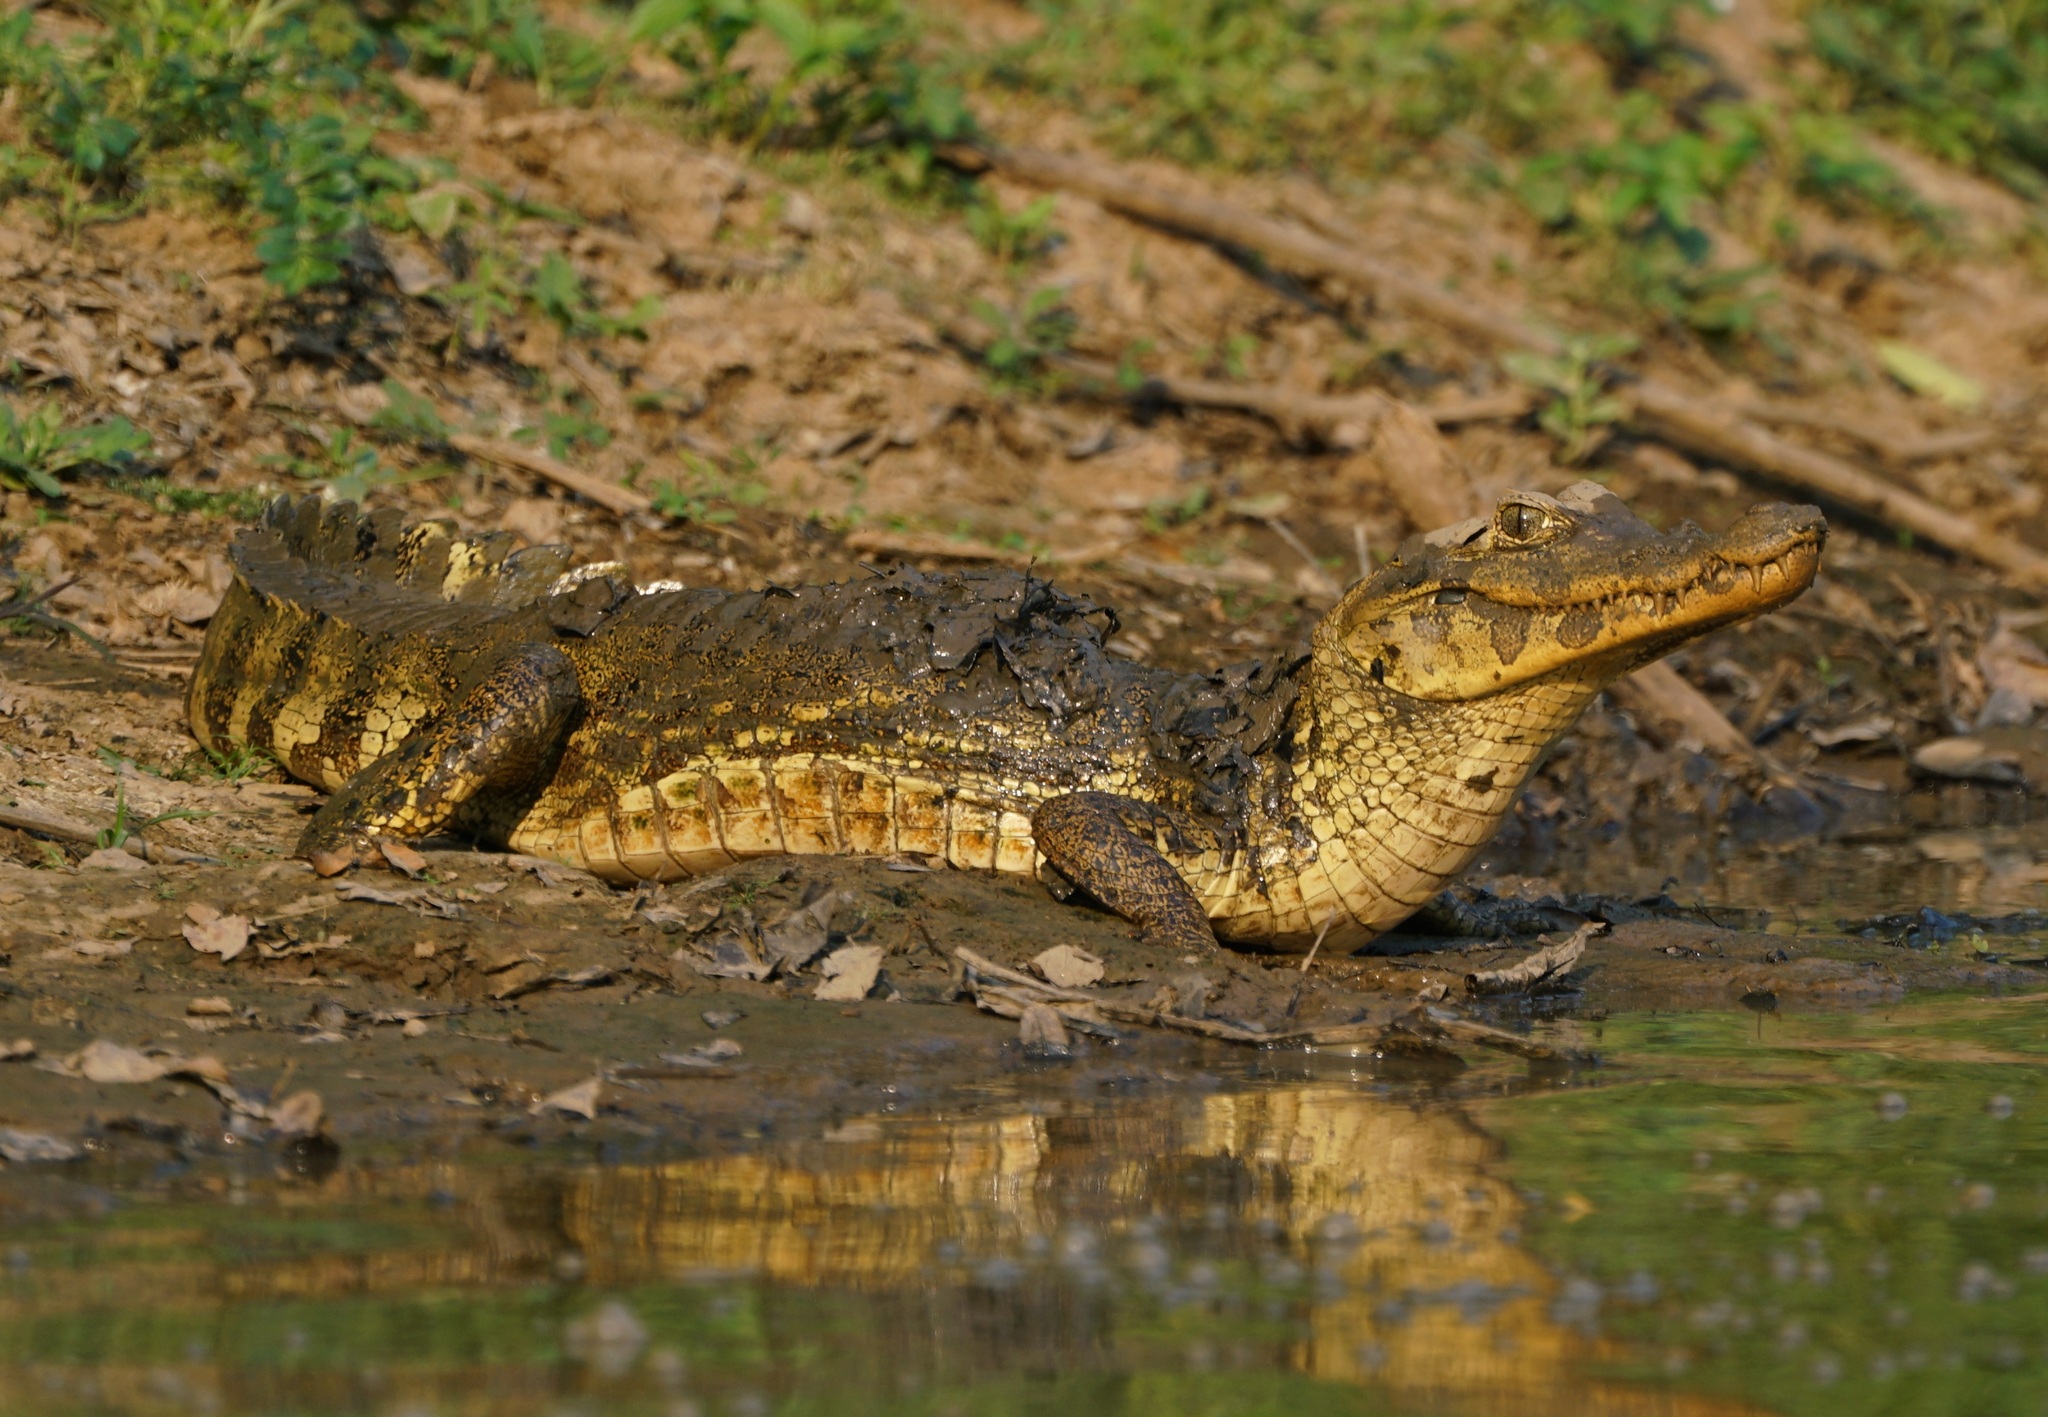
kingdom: Animalia
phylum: Chordata
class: Crocodylia
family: Alligatoridae
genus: Caiman
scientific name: Caiman yacare
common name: Yacare caiman
